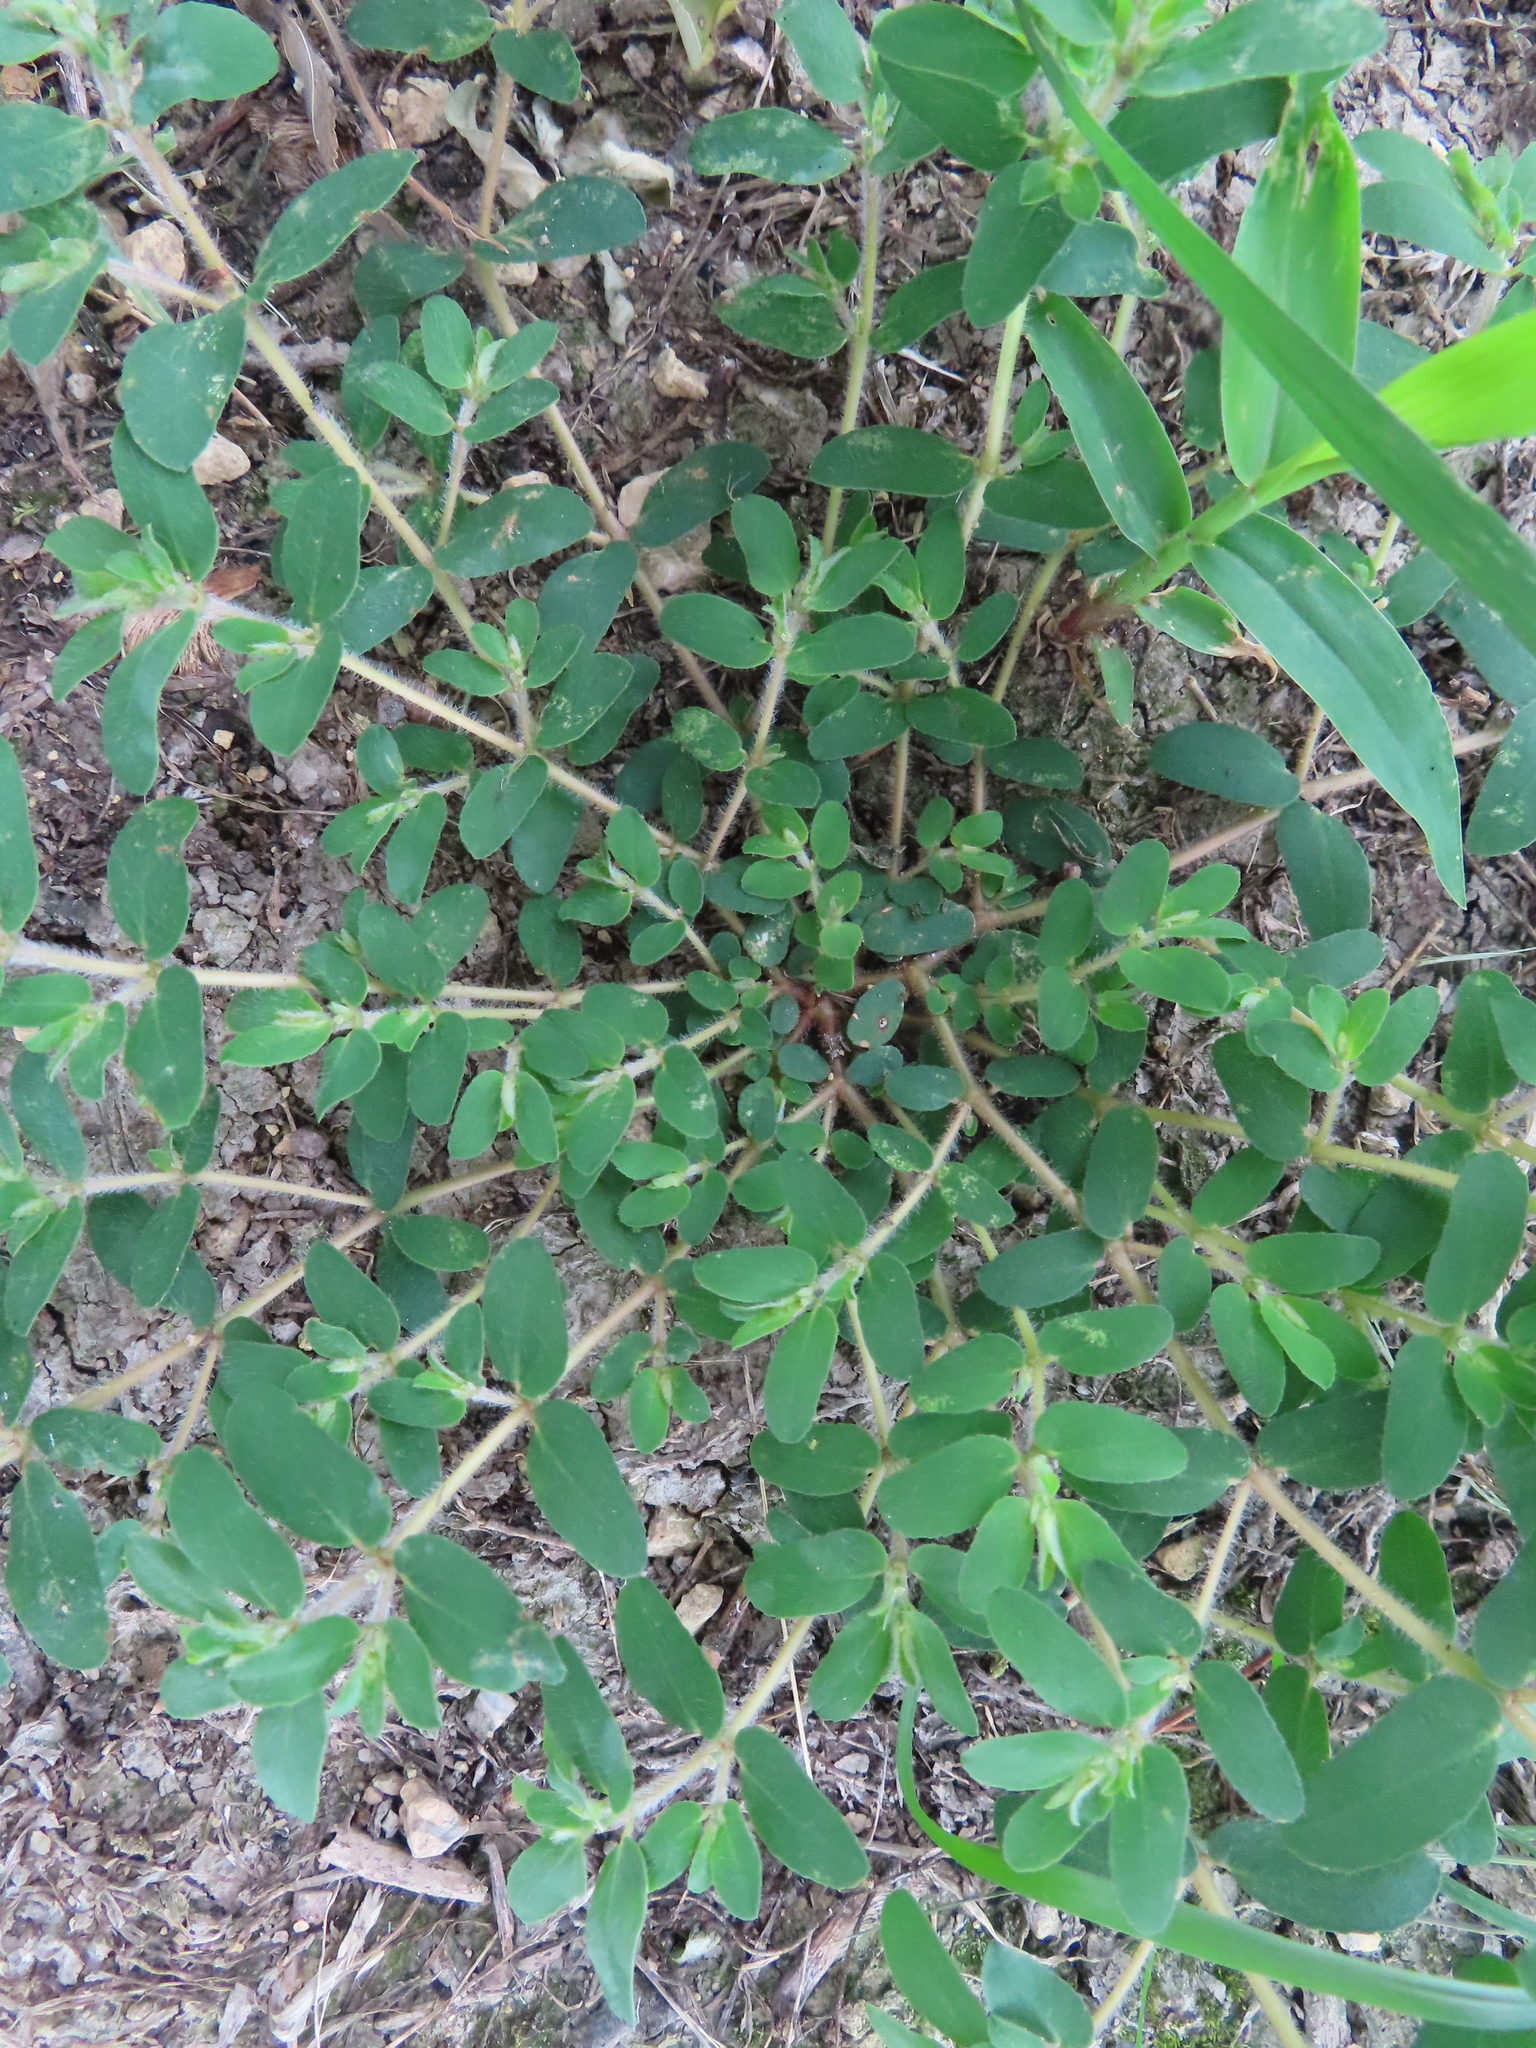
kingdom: Plantae
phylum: Tracheophyta
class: Magnoliopsida
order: Malpighiales
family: Euphorbiaceae
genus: Euphorbia
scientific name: Euphorbia maculata
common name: Spotted spurge
